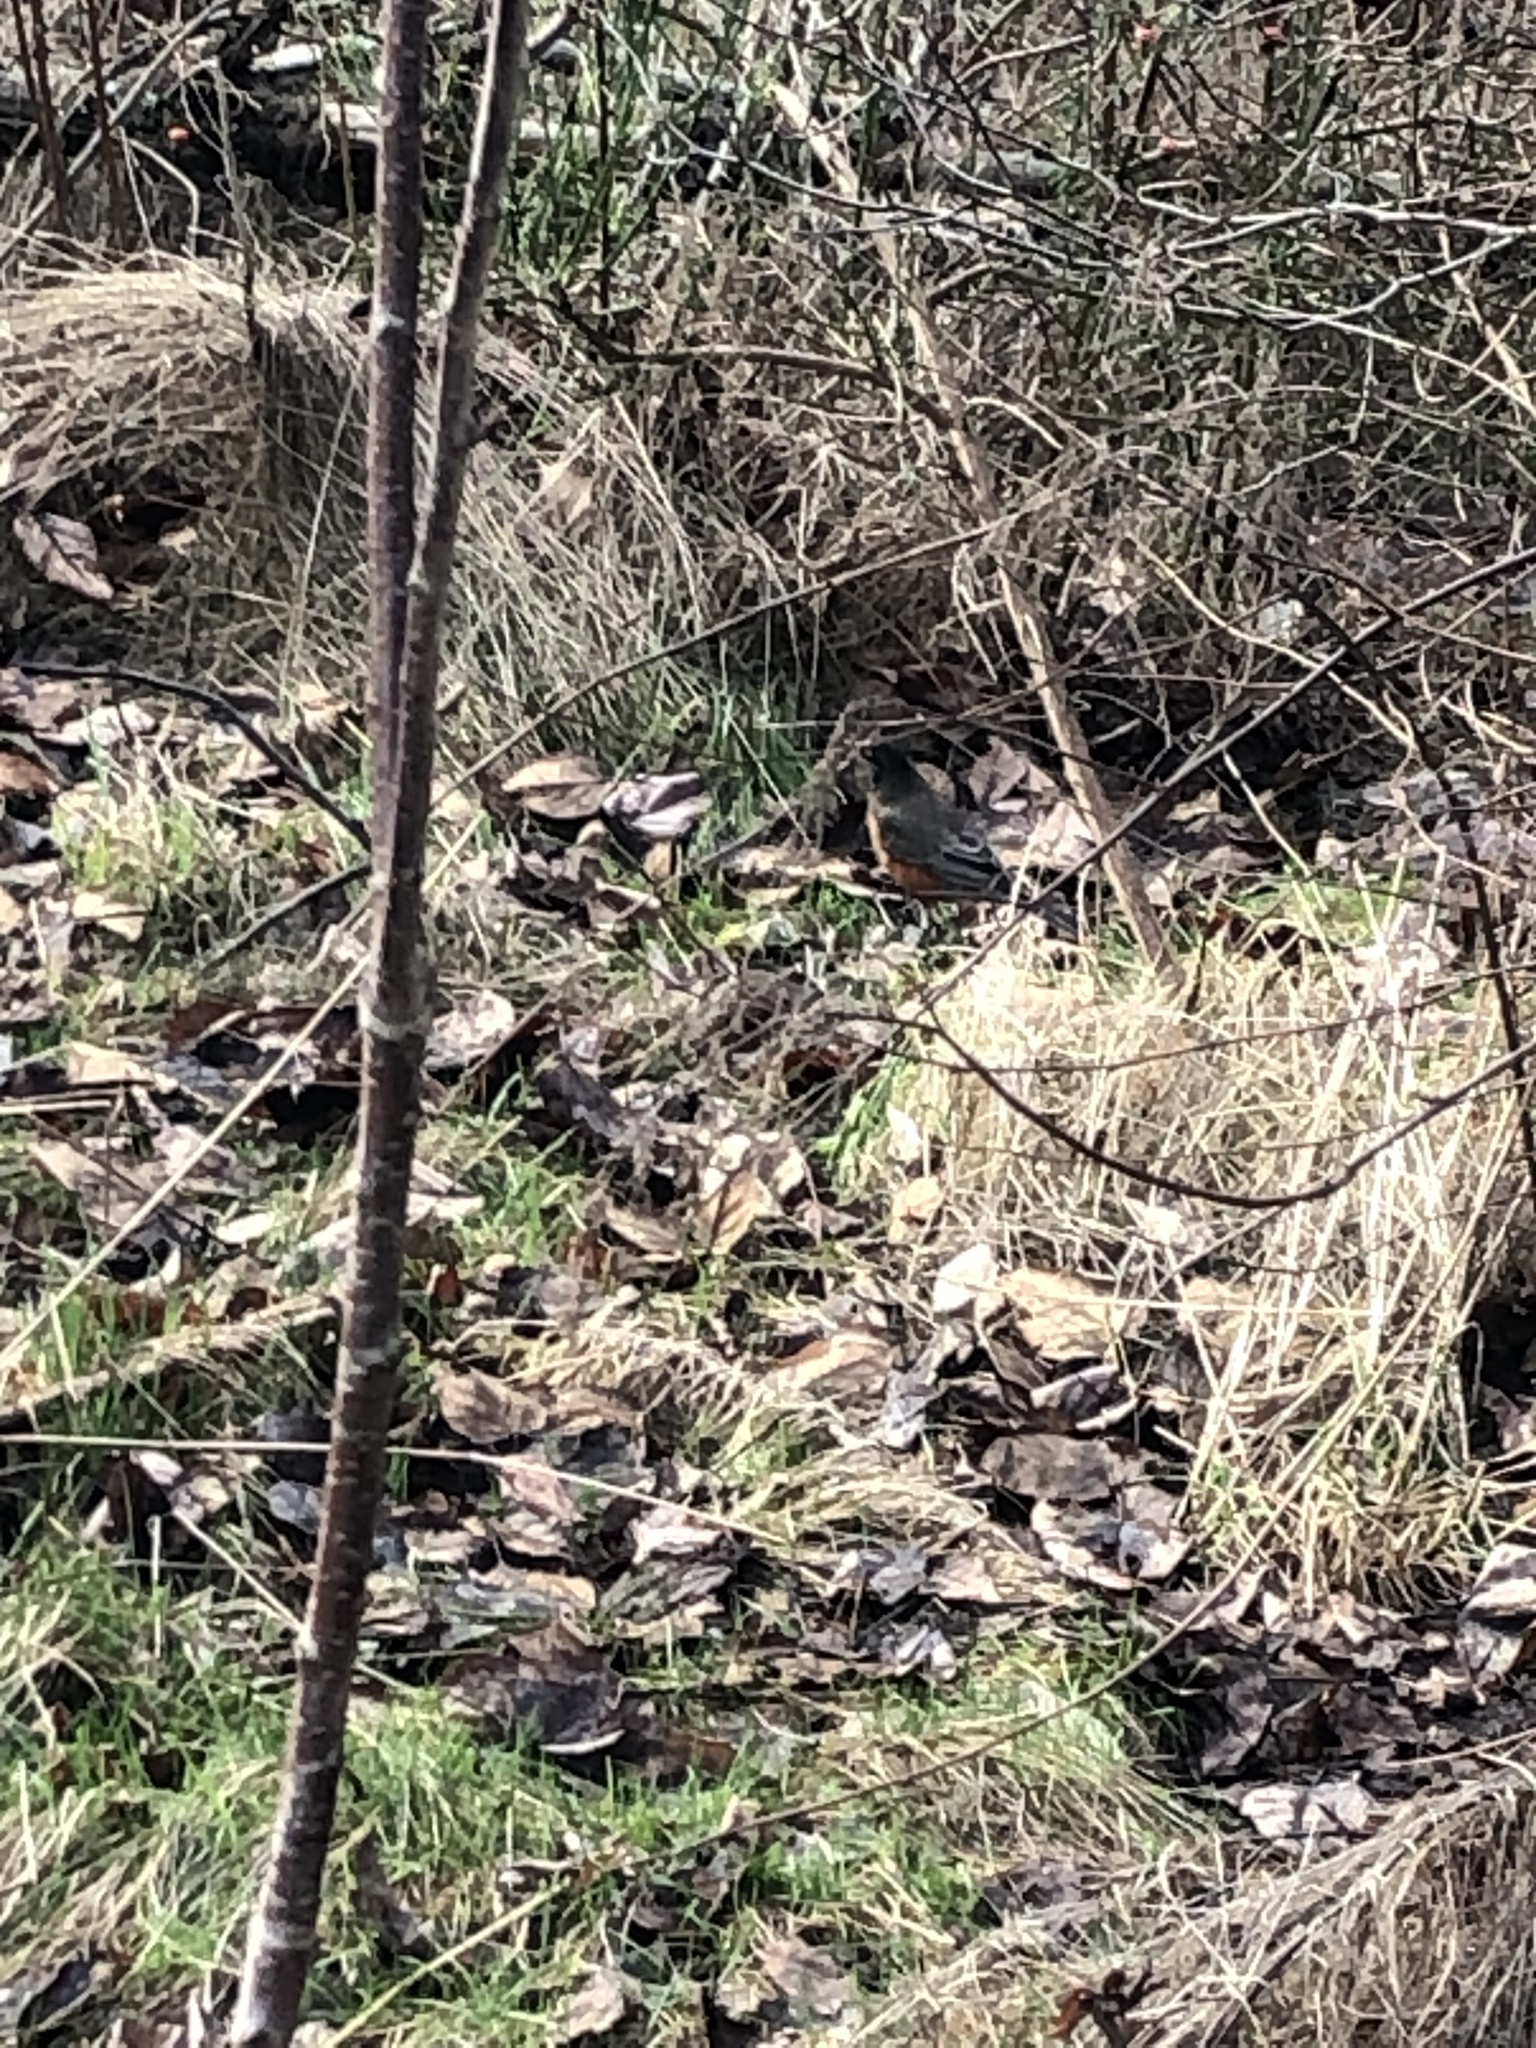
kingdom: Animalia
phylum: Chordata
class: Aves
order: Passeriformes
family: Turdidae
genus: Turdus
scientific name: Turdus migratorius
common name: American robin
